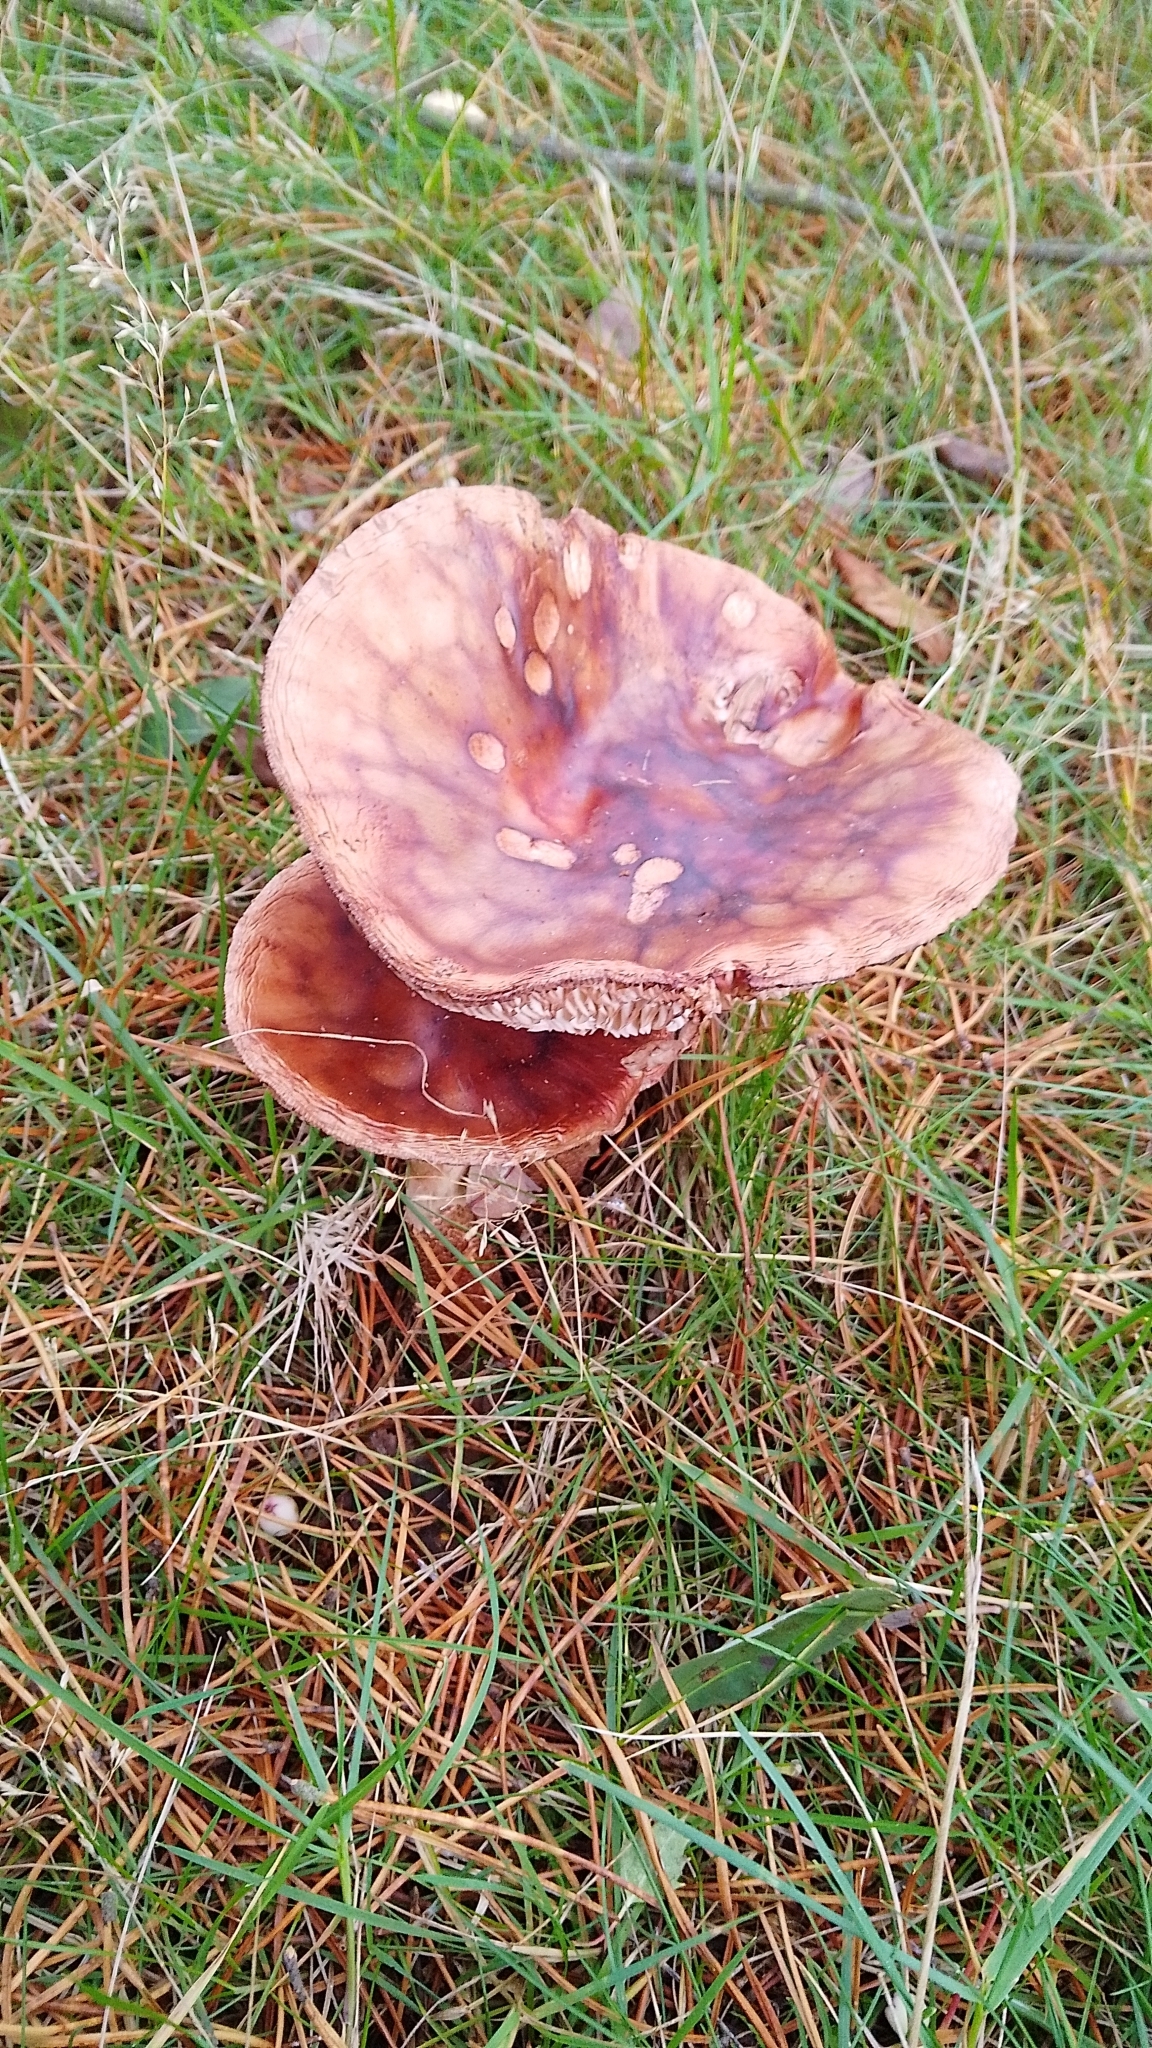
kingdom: Fungi
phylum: Basidiomycota
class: Agaricomycetes
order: Agaricales
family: Amanitaceae
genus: Amanita
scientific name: Amanita rubescens
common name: Blusher
